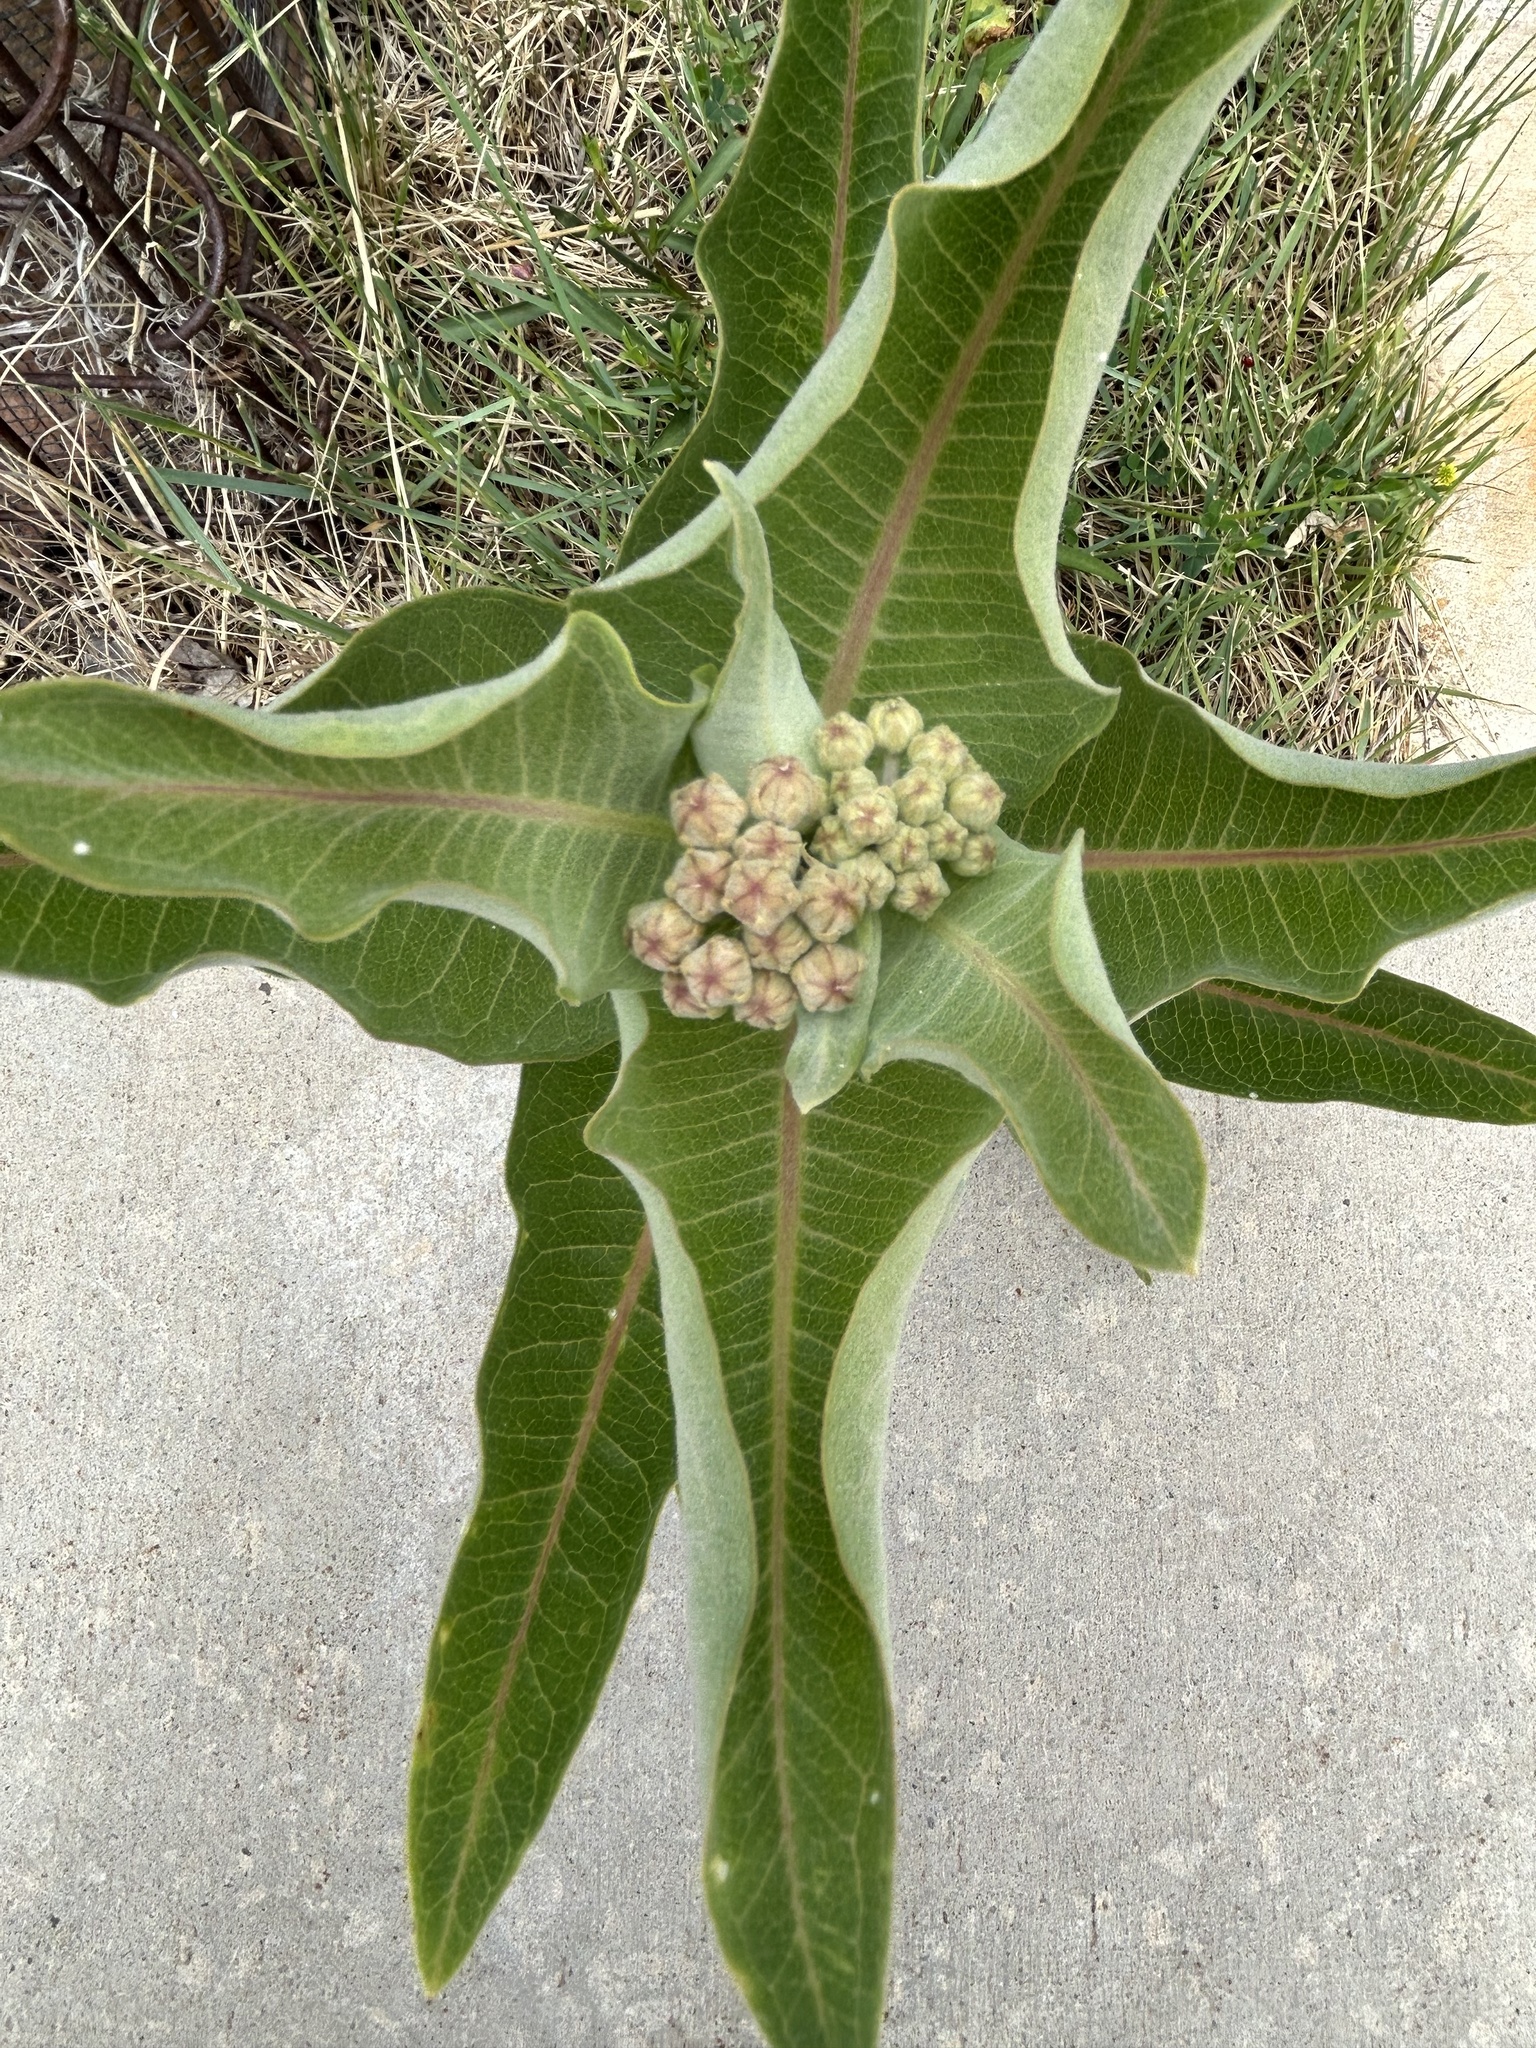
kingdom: Plantae
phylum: Tracheophyta
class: Magnoliopsida
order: Gentianales
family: Apocynaceae
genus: Asclepias
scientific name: Asclepias speciosa
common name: Showy milkweed
